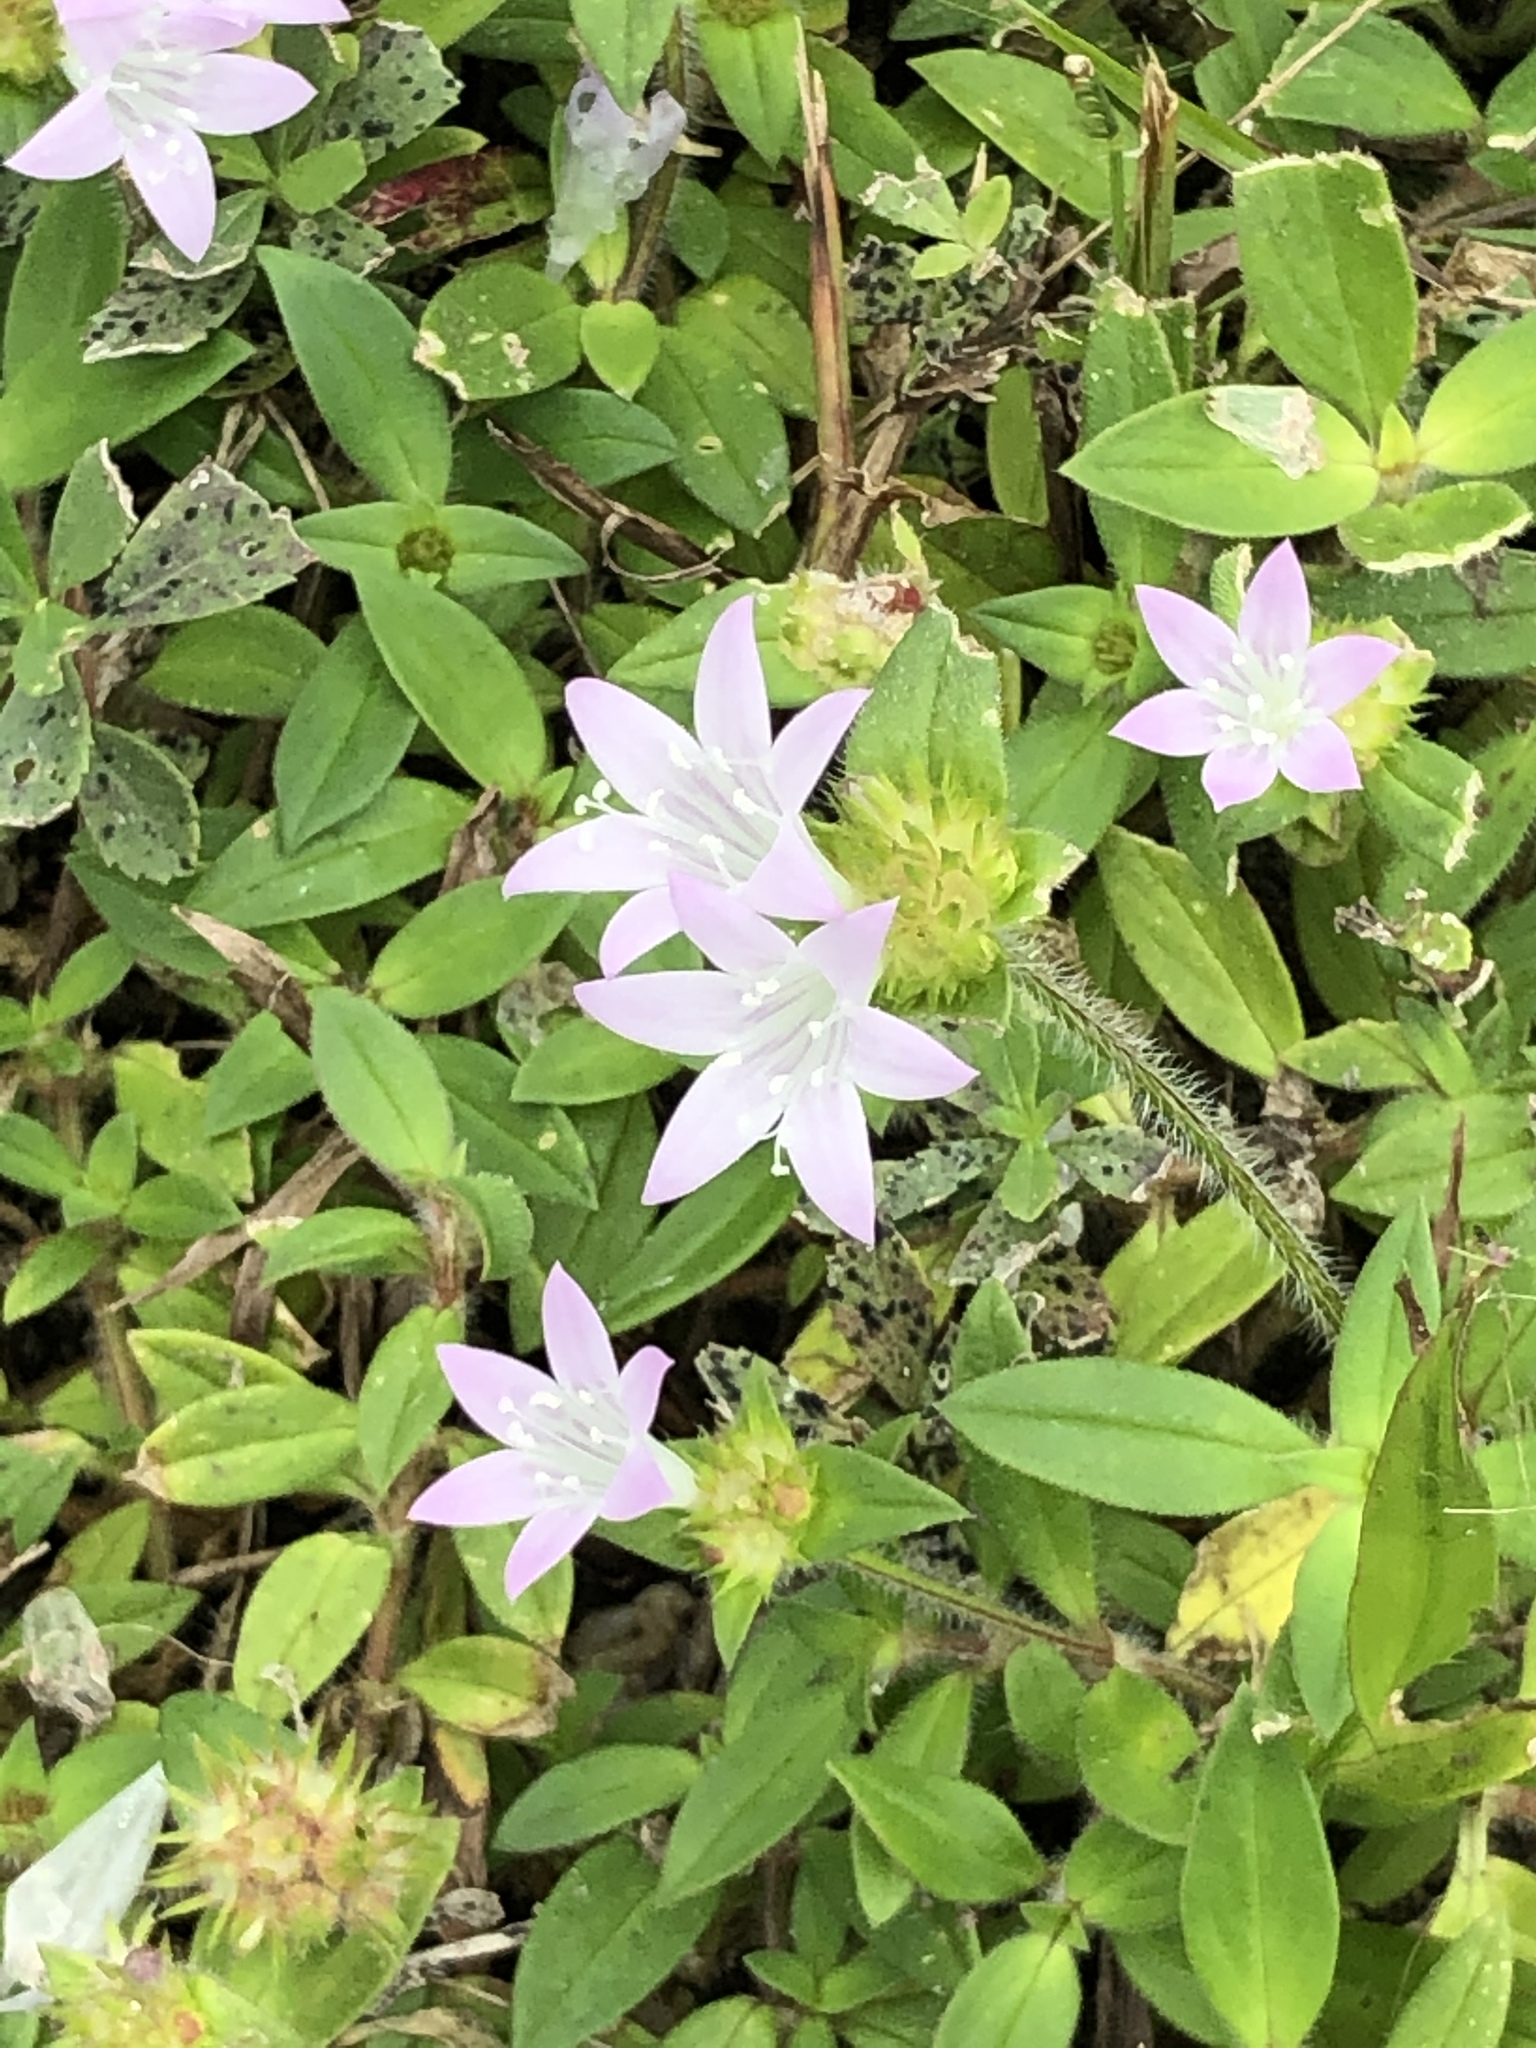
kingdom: Plantae
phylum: Tracheophyta
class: Magnoliopsida
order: Gentianales
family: Rubiaceae
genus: Richardia
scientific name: Richardia grandiflora
